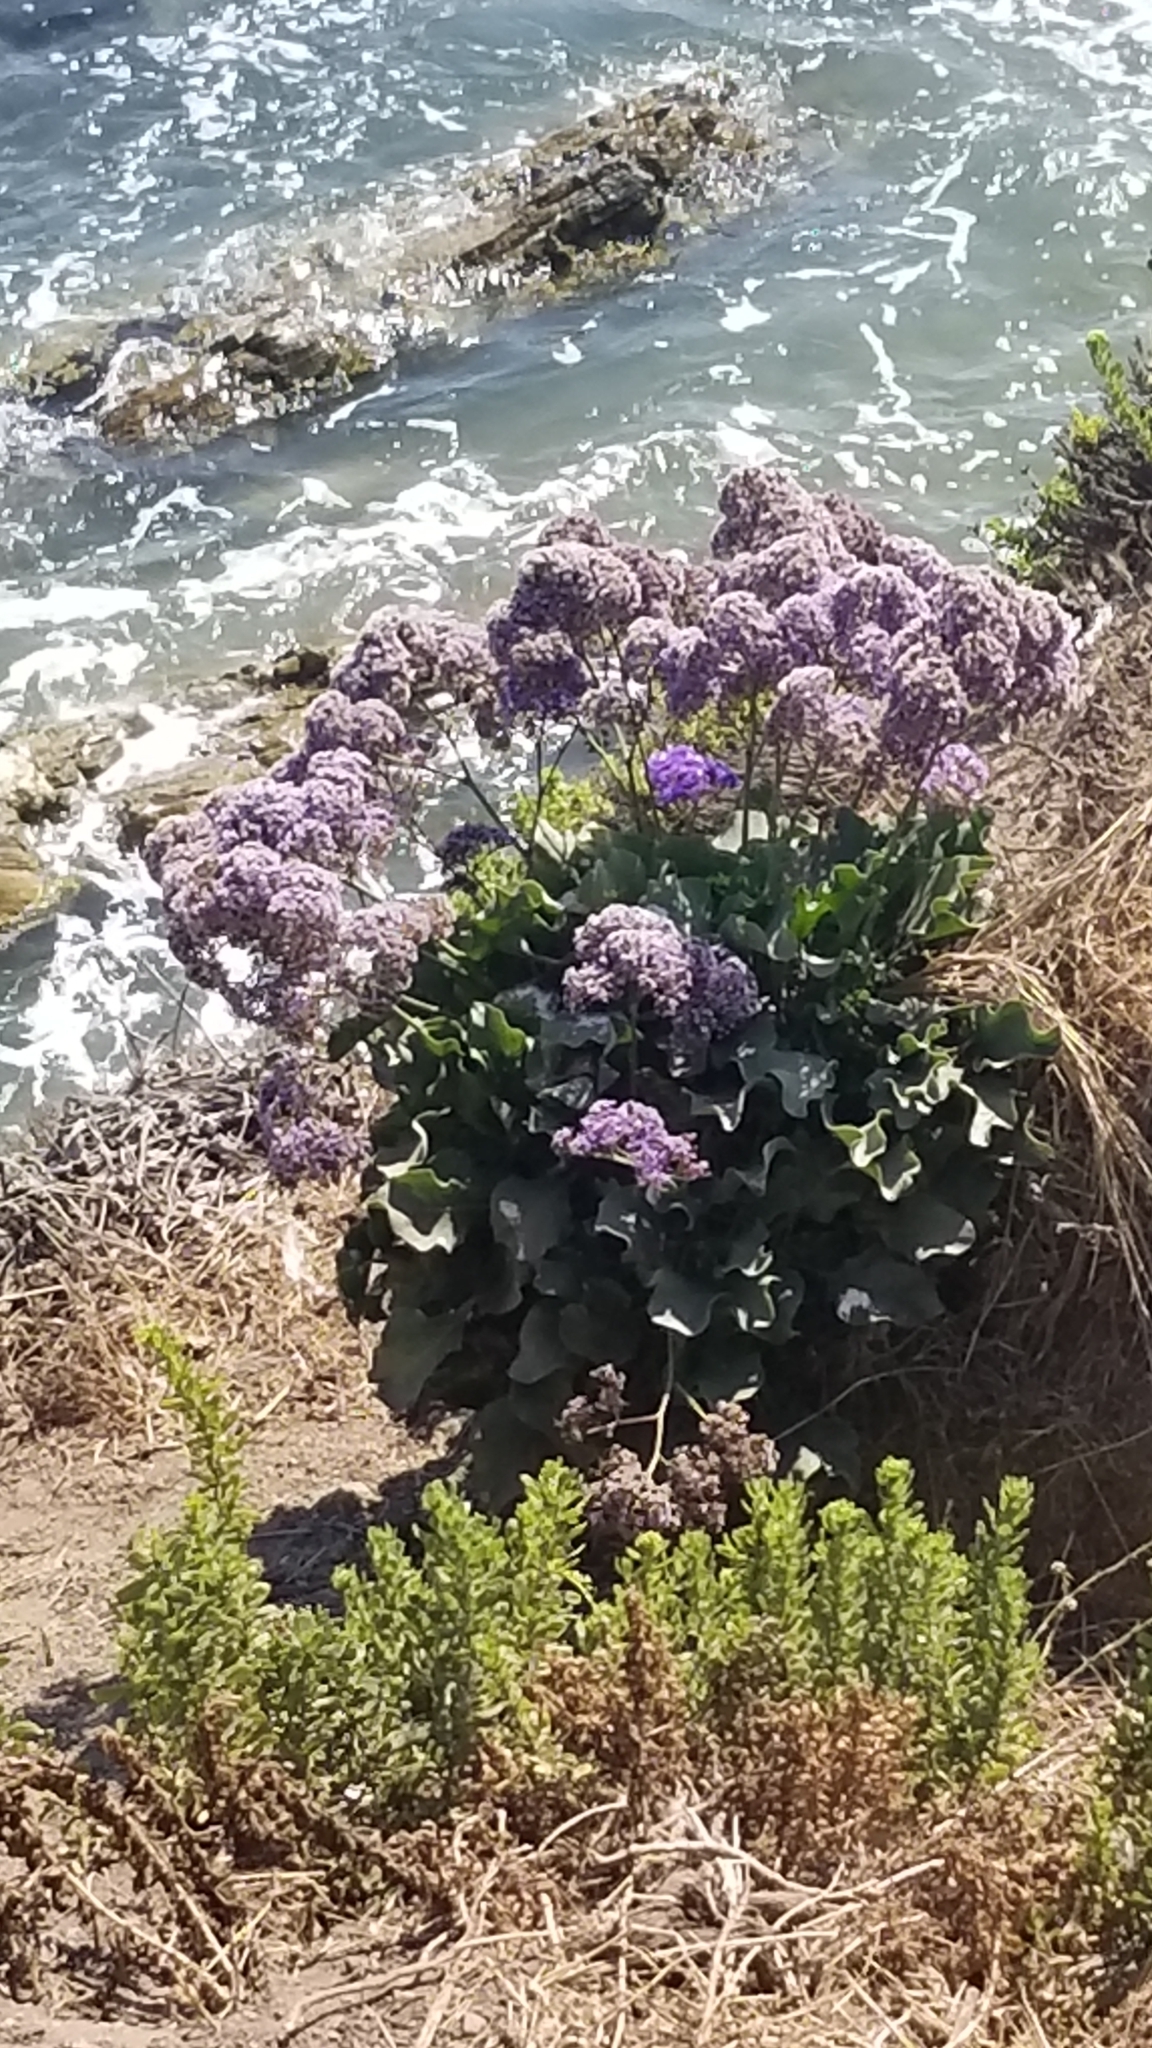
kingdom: Plantae
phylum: Tracheophyta
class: Magnoliopsida
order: Caryophyllales
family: Plumbaginaceae
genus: Limonium
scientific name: Limonium perezii
